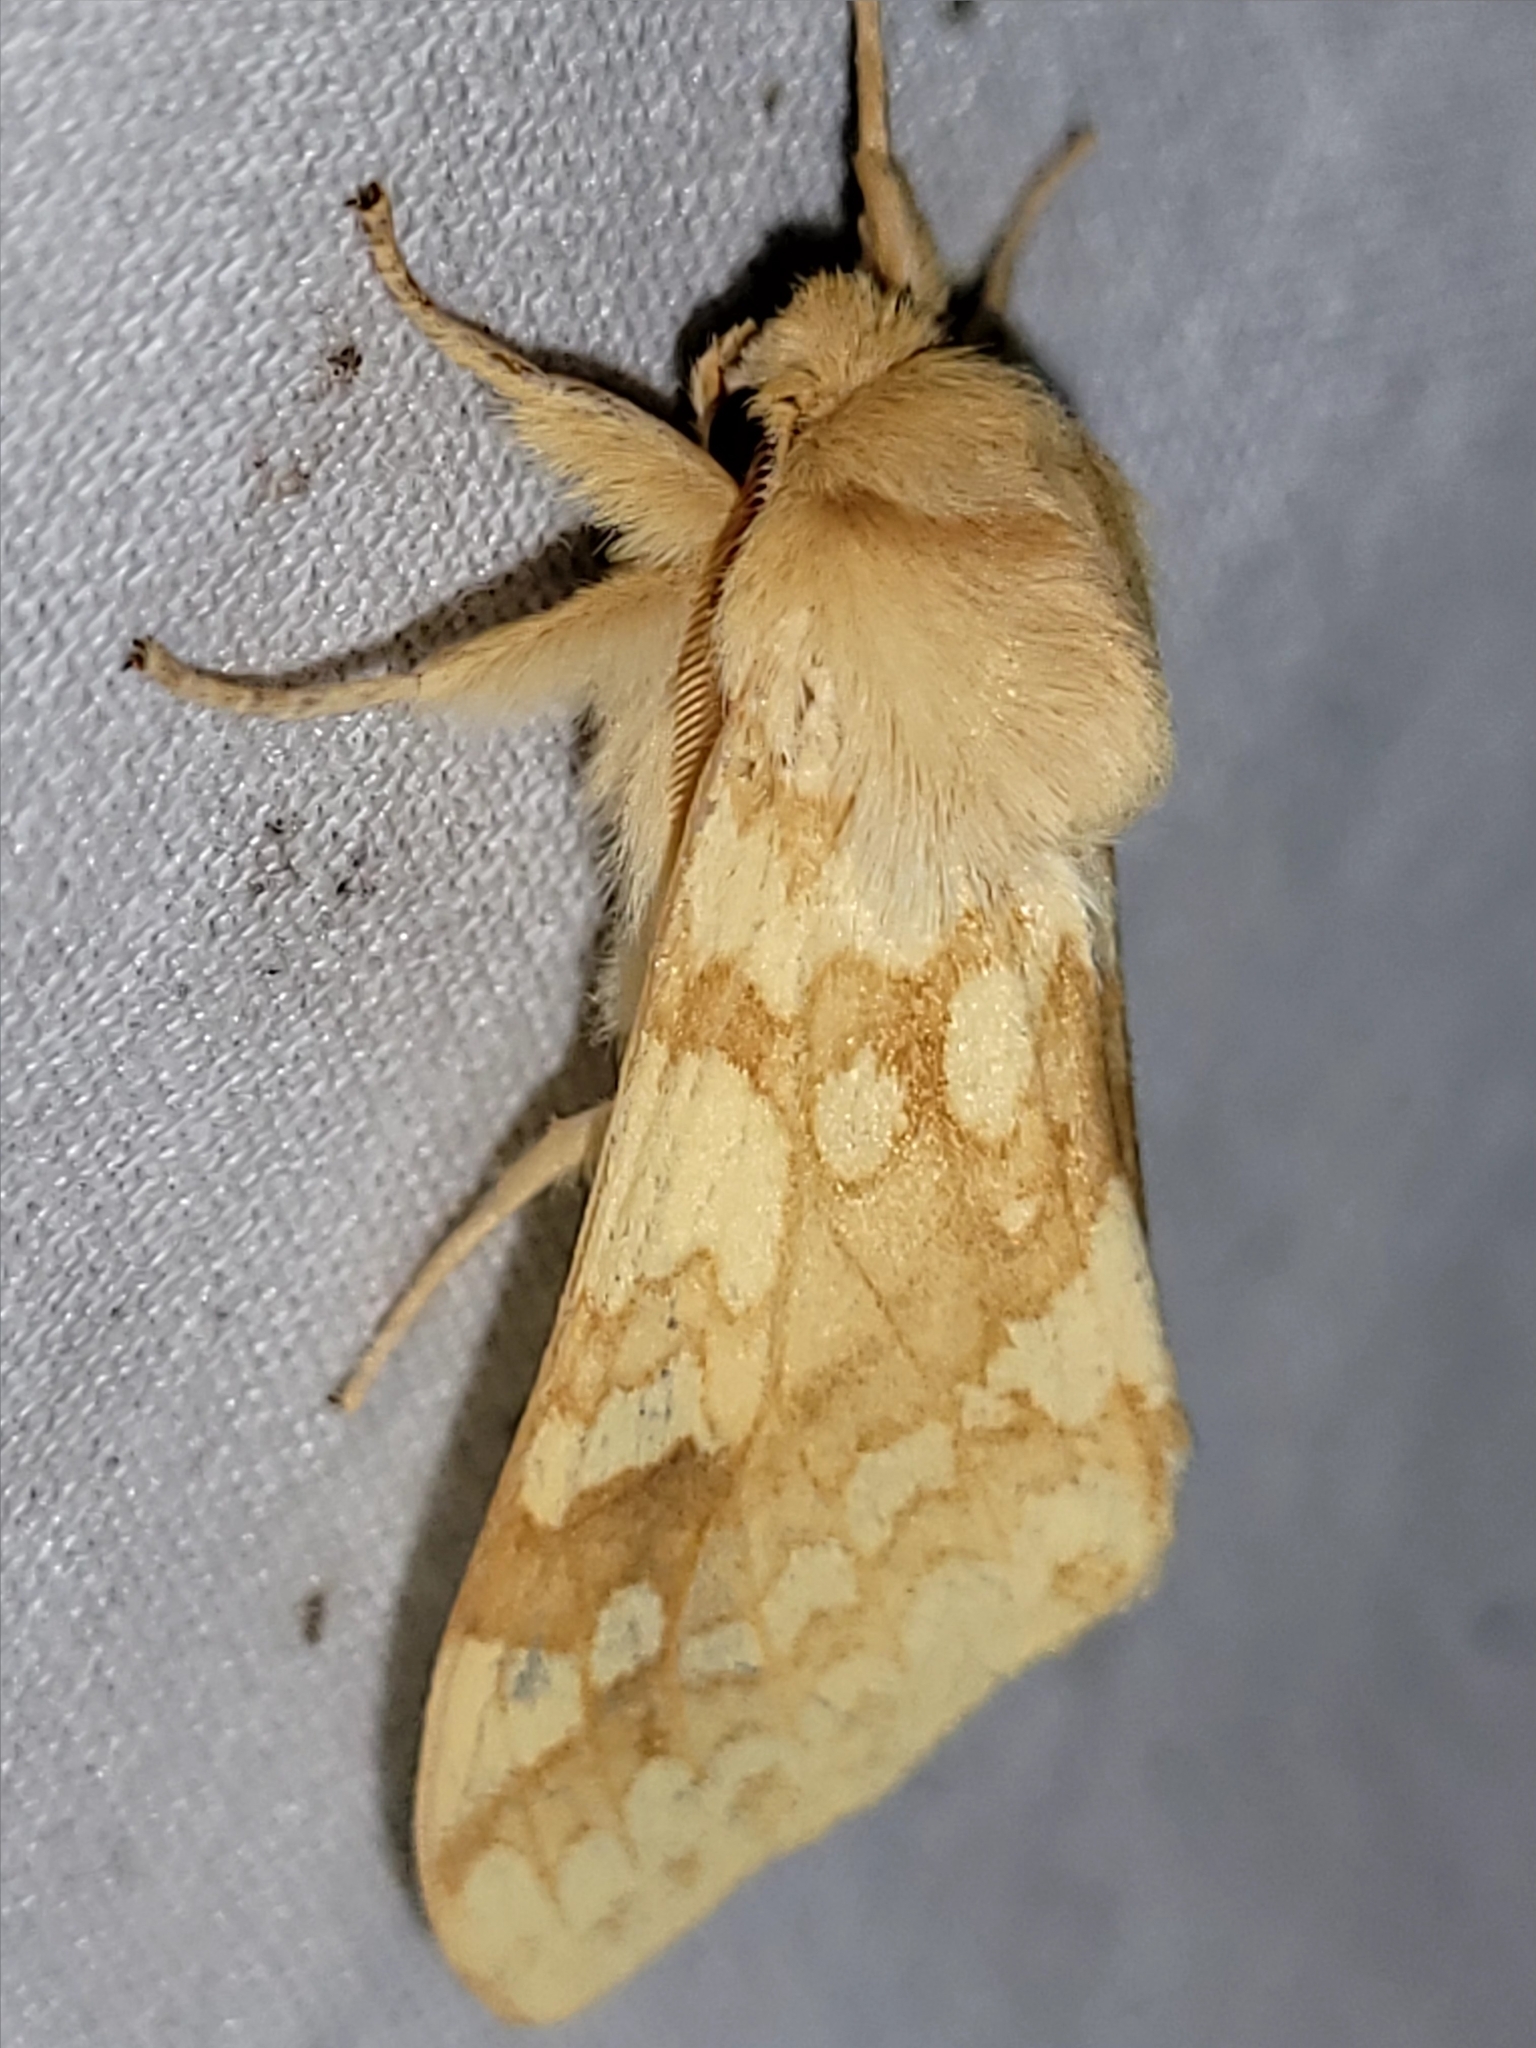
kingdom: Animalia
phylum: Arthropoda
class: Insecta
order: Lepidoptera
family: Erebidae
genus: Lophocampa
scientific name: Lophocampa maculata
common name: Spotted tussock moth
